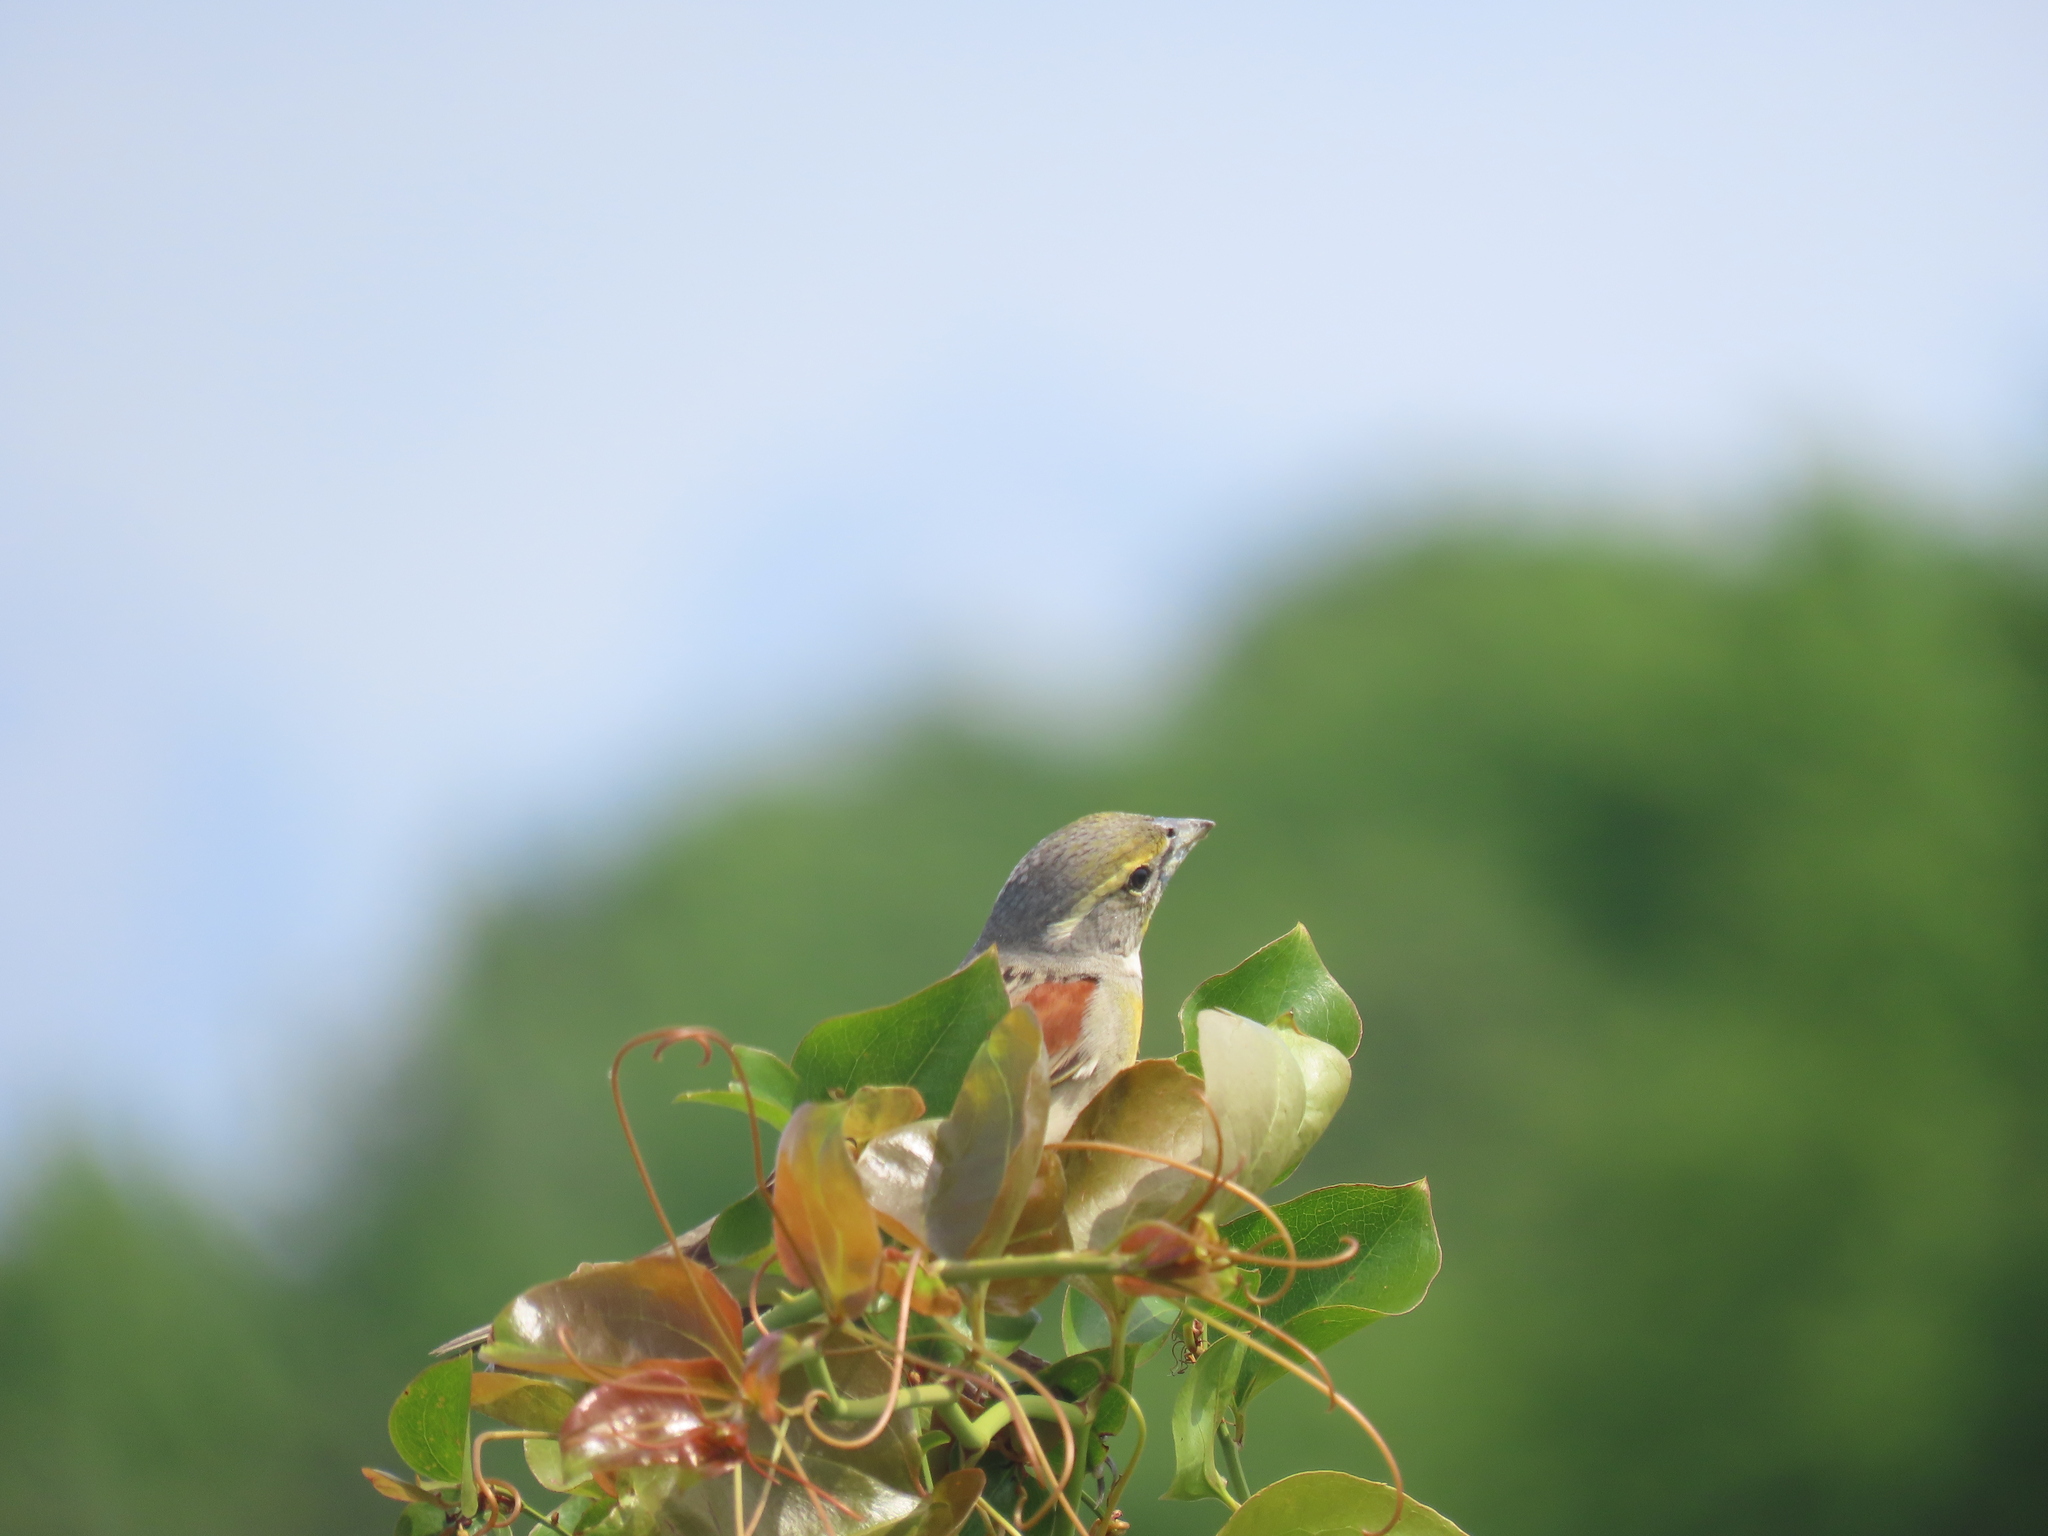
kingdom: Animalia
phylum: Chordata
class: Aves
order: Passeriformes
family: Cardinalidae
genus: Spiza
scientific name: Spiza americana
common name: Dickcissel
